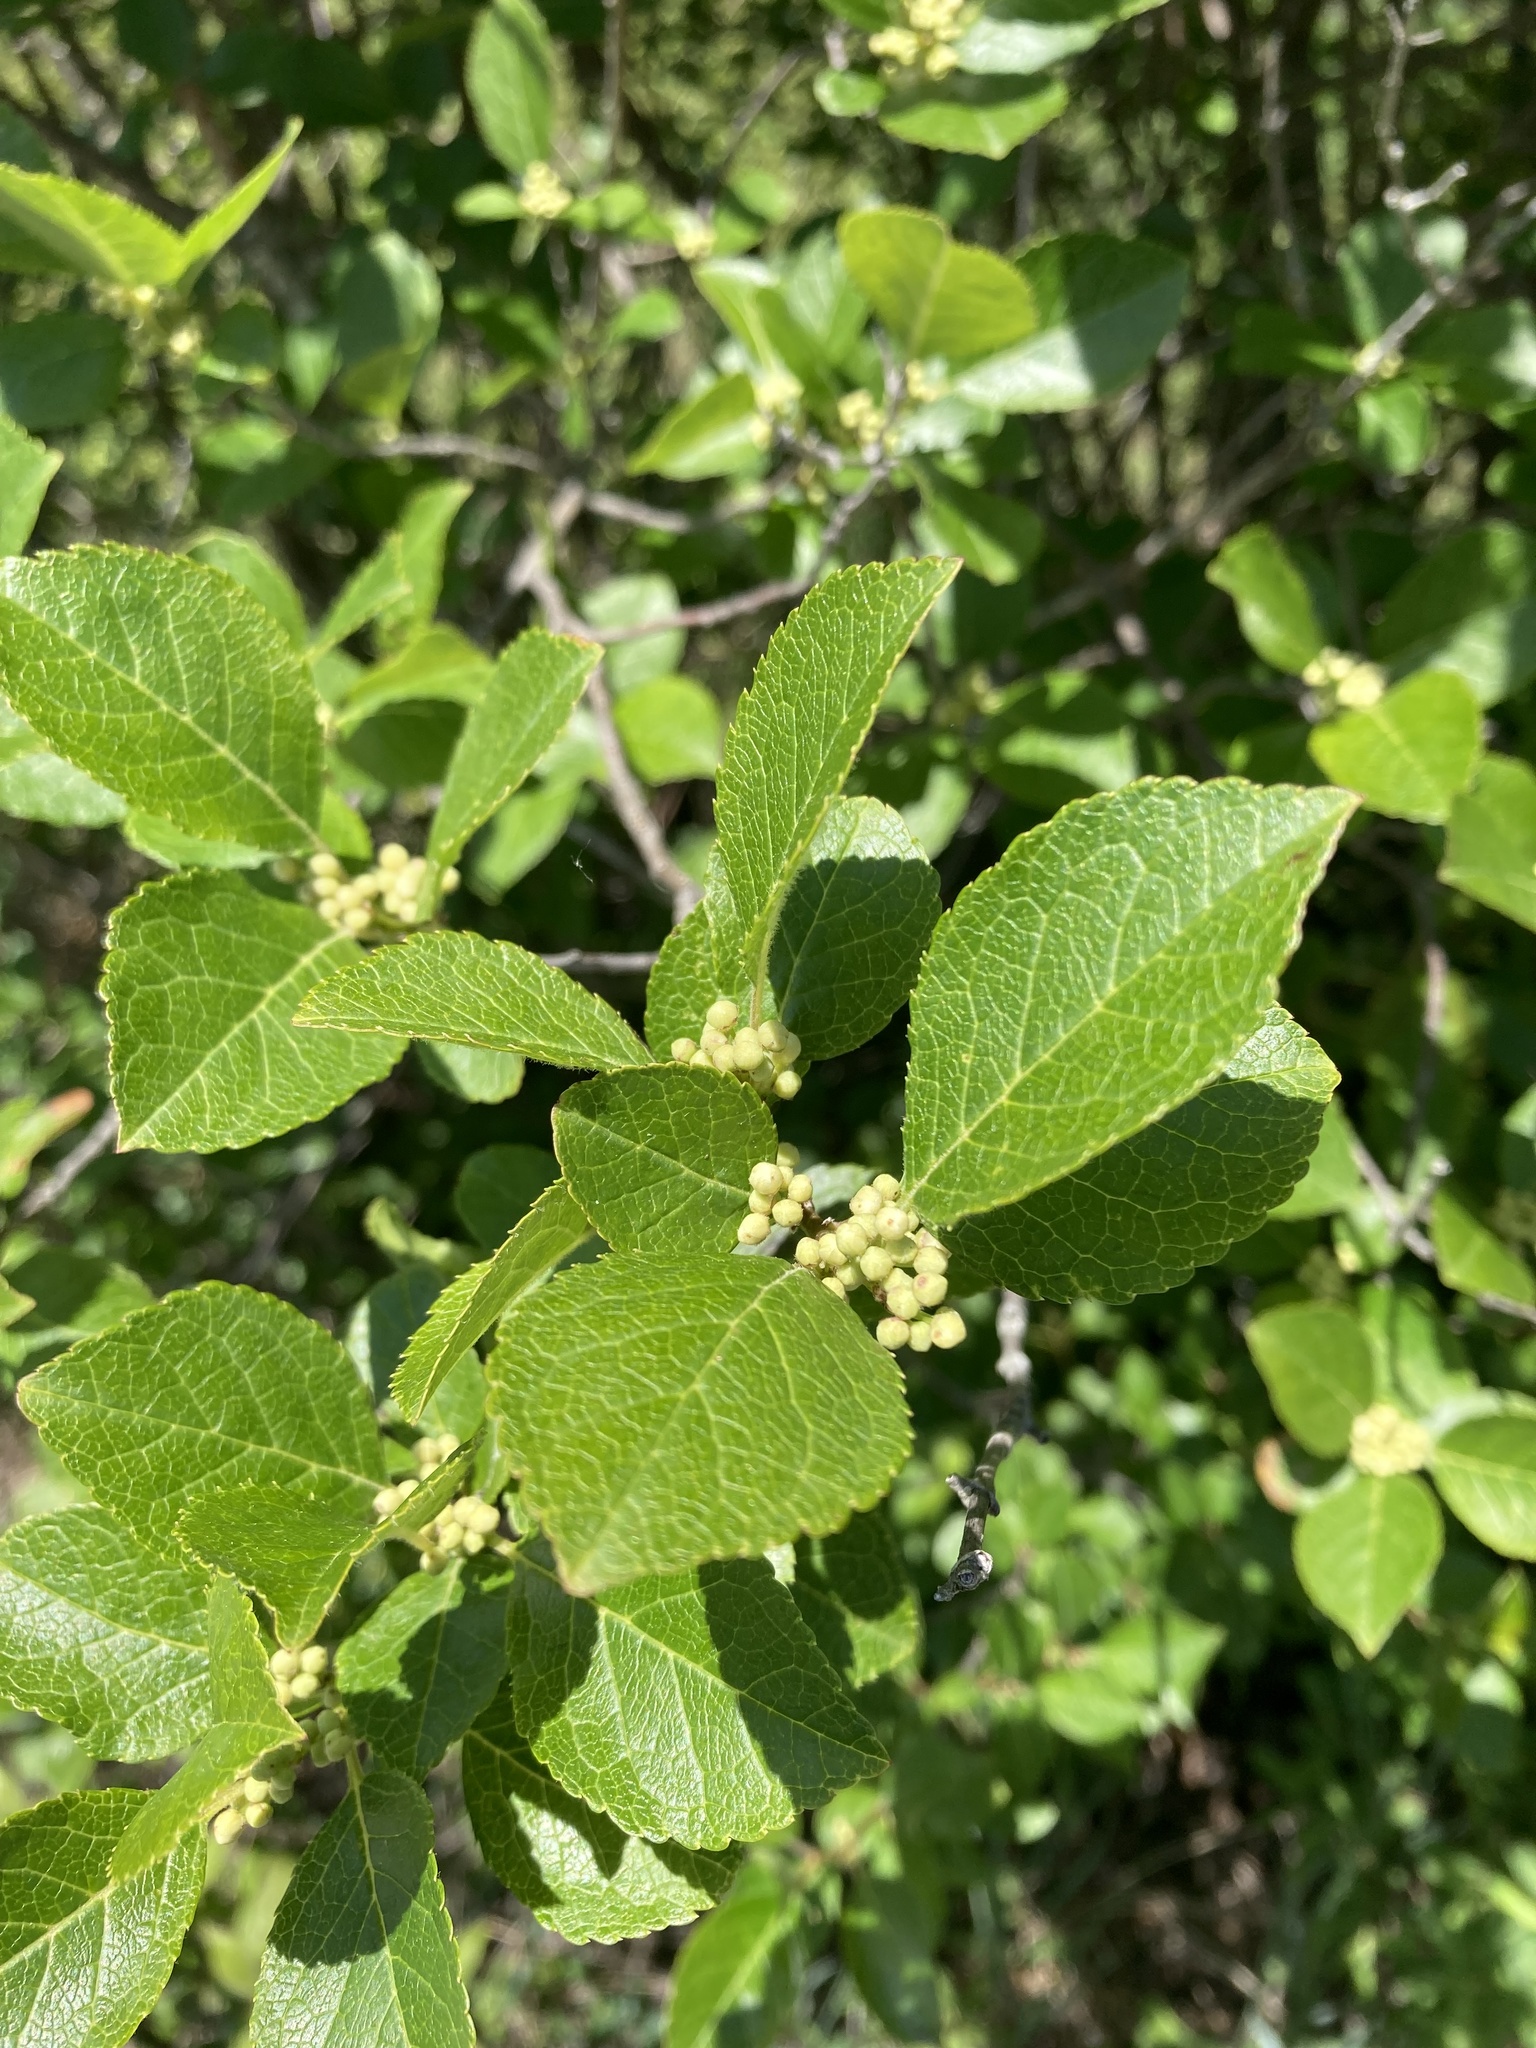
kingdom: Plantae
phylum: Tracheophyta
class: Magnoliopsida
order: Aquifoliales
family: Aquifoliaceae
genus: Ilex
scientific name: Ilex verticillata
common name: Virginia winterberry
